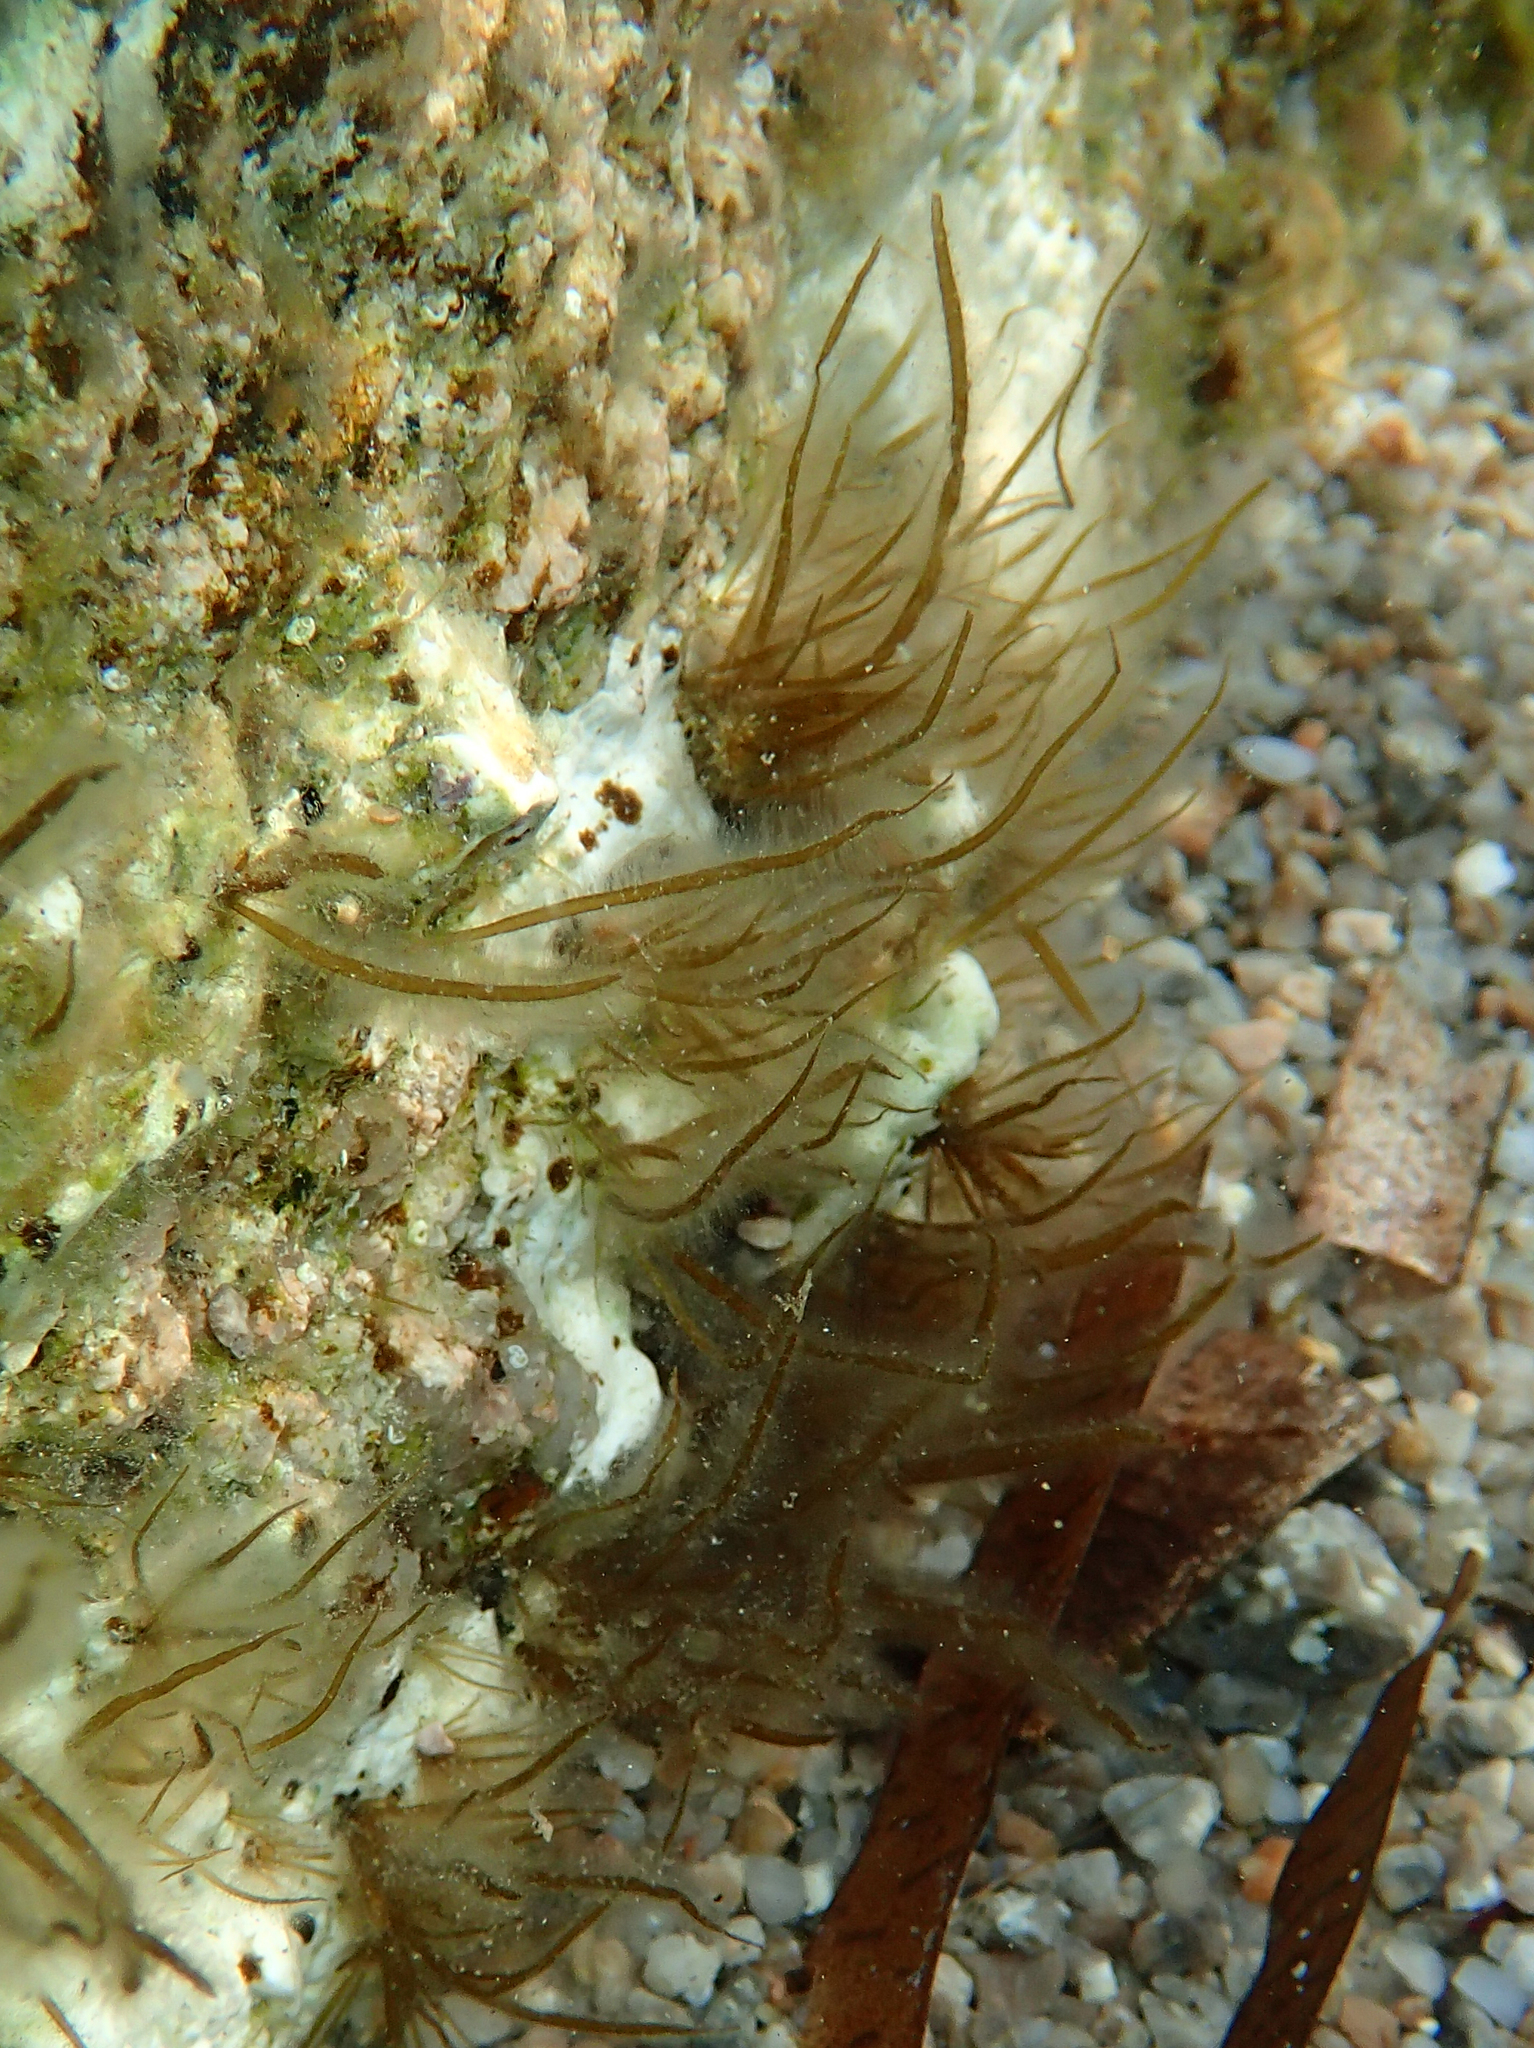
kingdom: Chromista
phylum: Ochrophyta
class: Phaeophyceae
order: Scytosiphonales
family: Scytosiphonaceae
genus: Scytosiphon
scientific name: Scytosiphon lomentaria
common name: Beanweed
